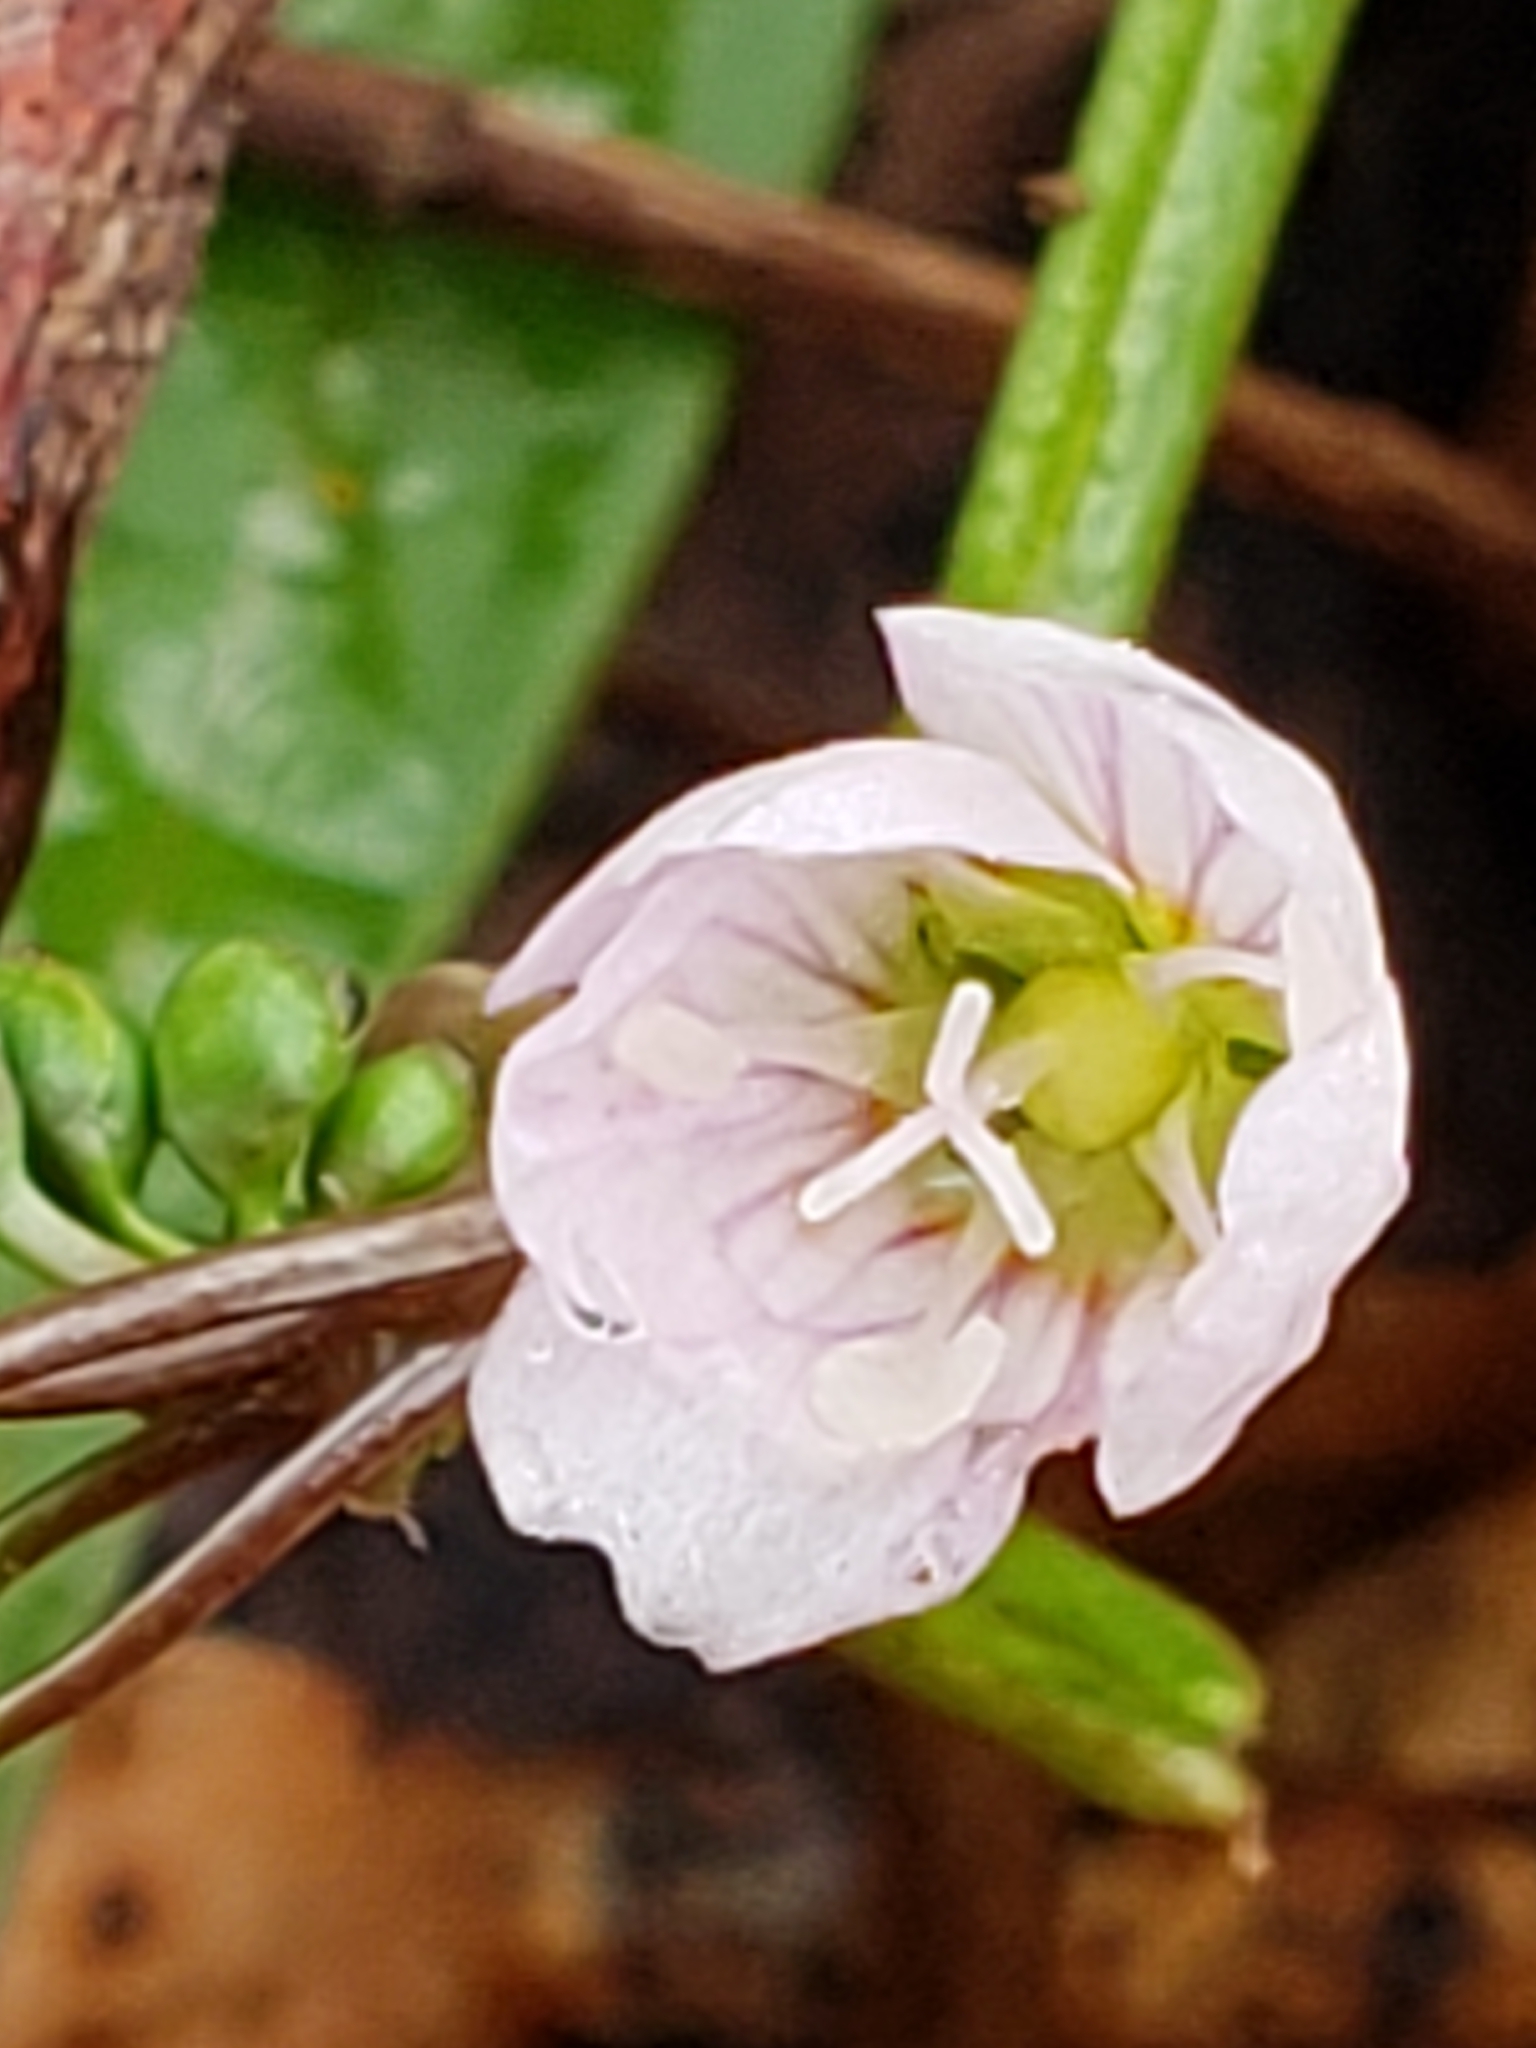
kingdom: Plantae
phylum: Tracheophyta
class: Magnoliopsida
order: Caryophyllales
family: Montiaceae
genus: Claytonia
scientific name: Claytonia virginica
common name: Virginia springbeauty
